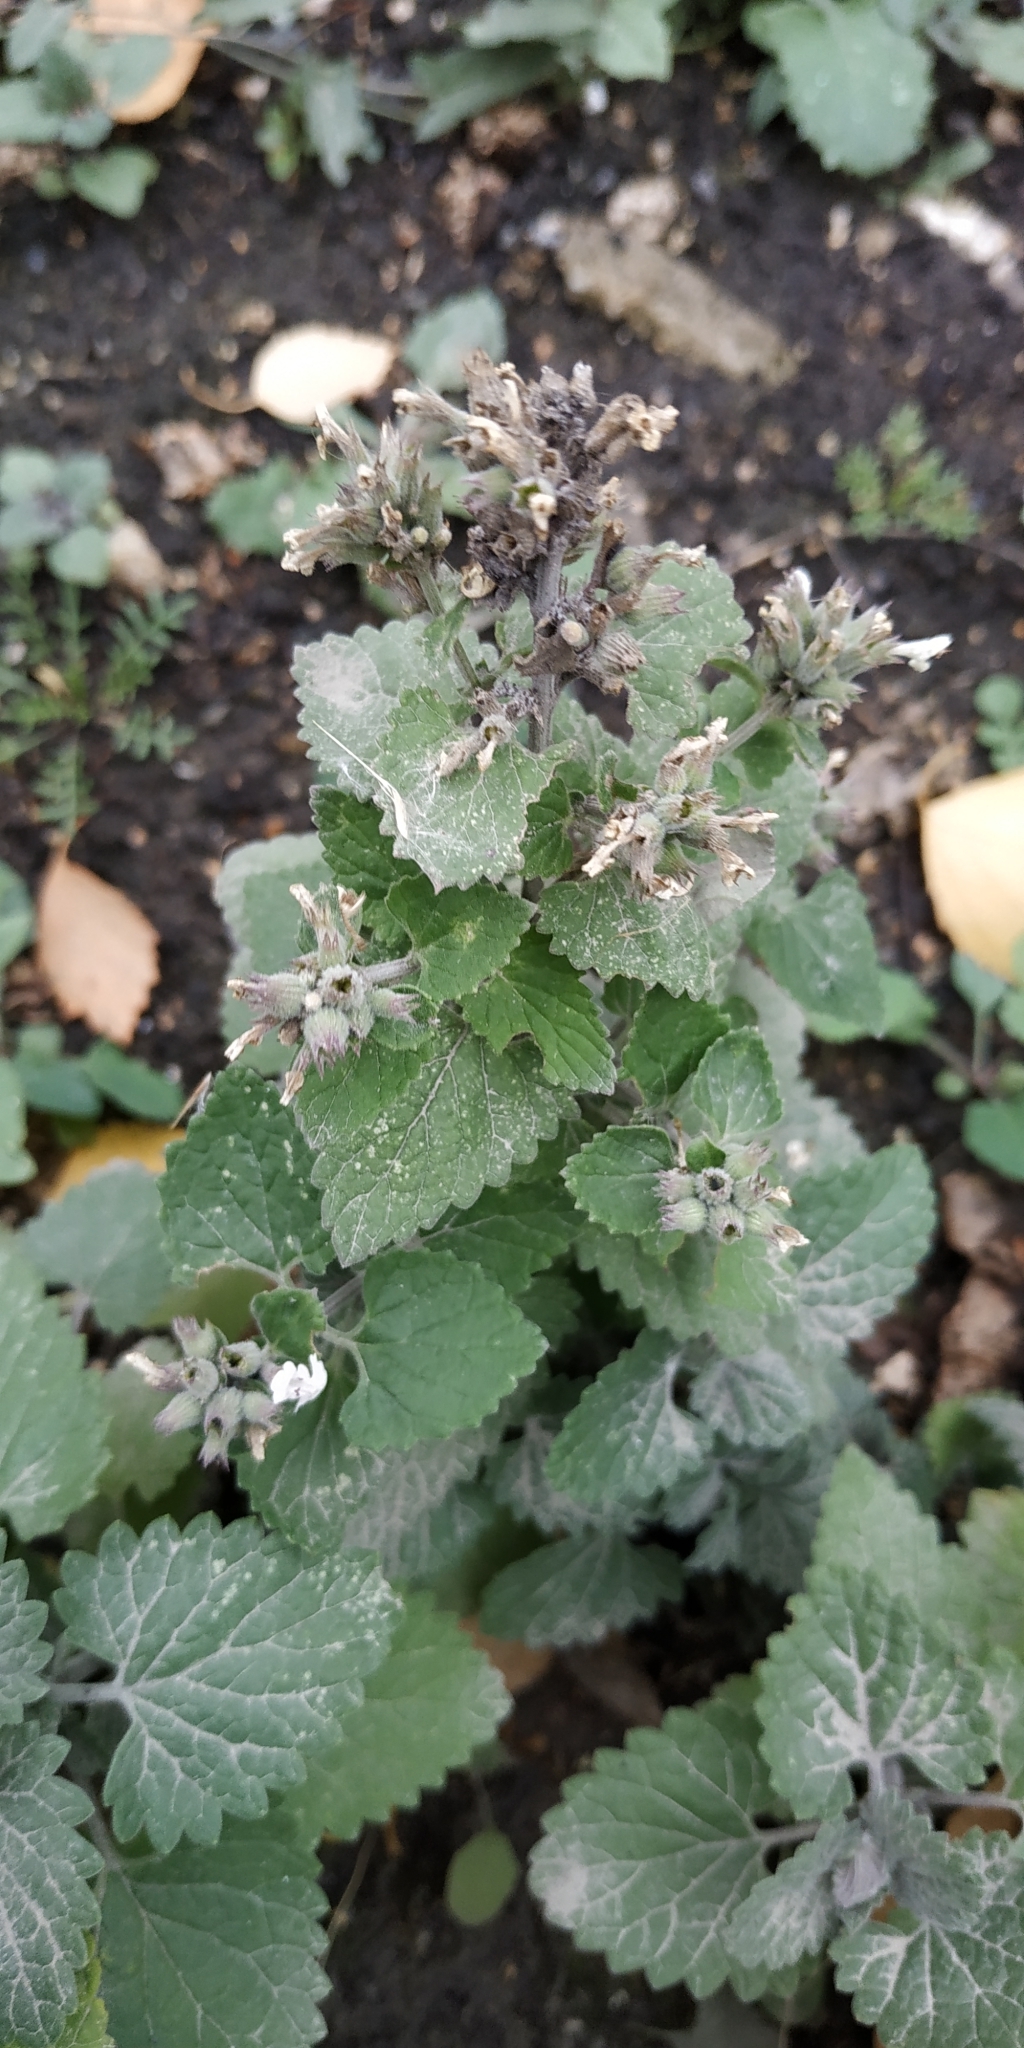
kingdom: Plantae
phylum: Tracheophyta
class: Magnoliopsida
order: Lamiales
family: Lamiaceae
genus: Nepeta
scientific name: Nepeta cataria
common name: Catnip
